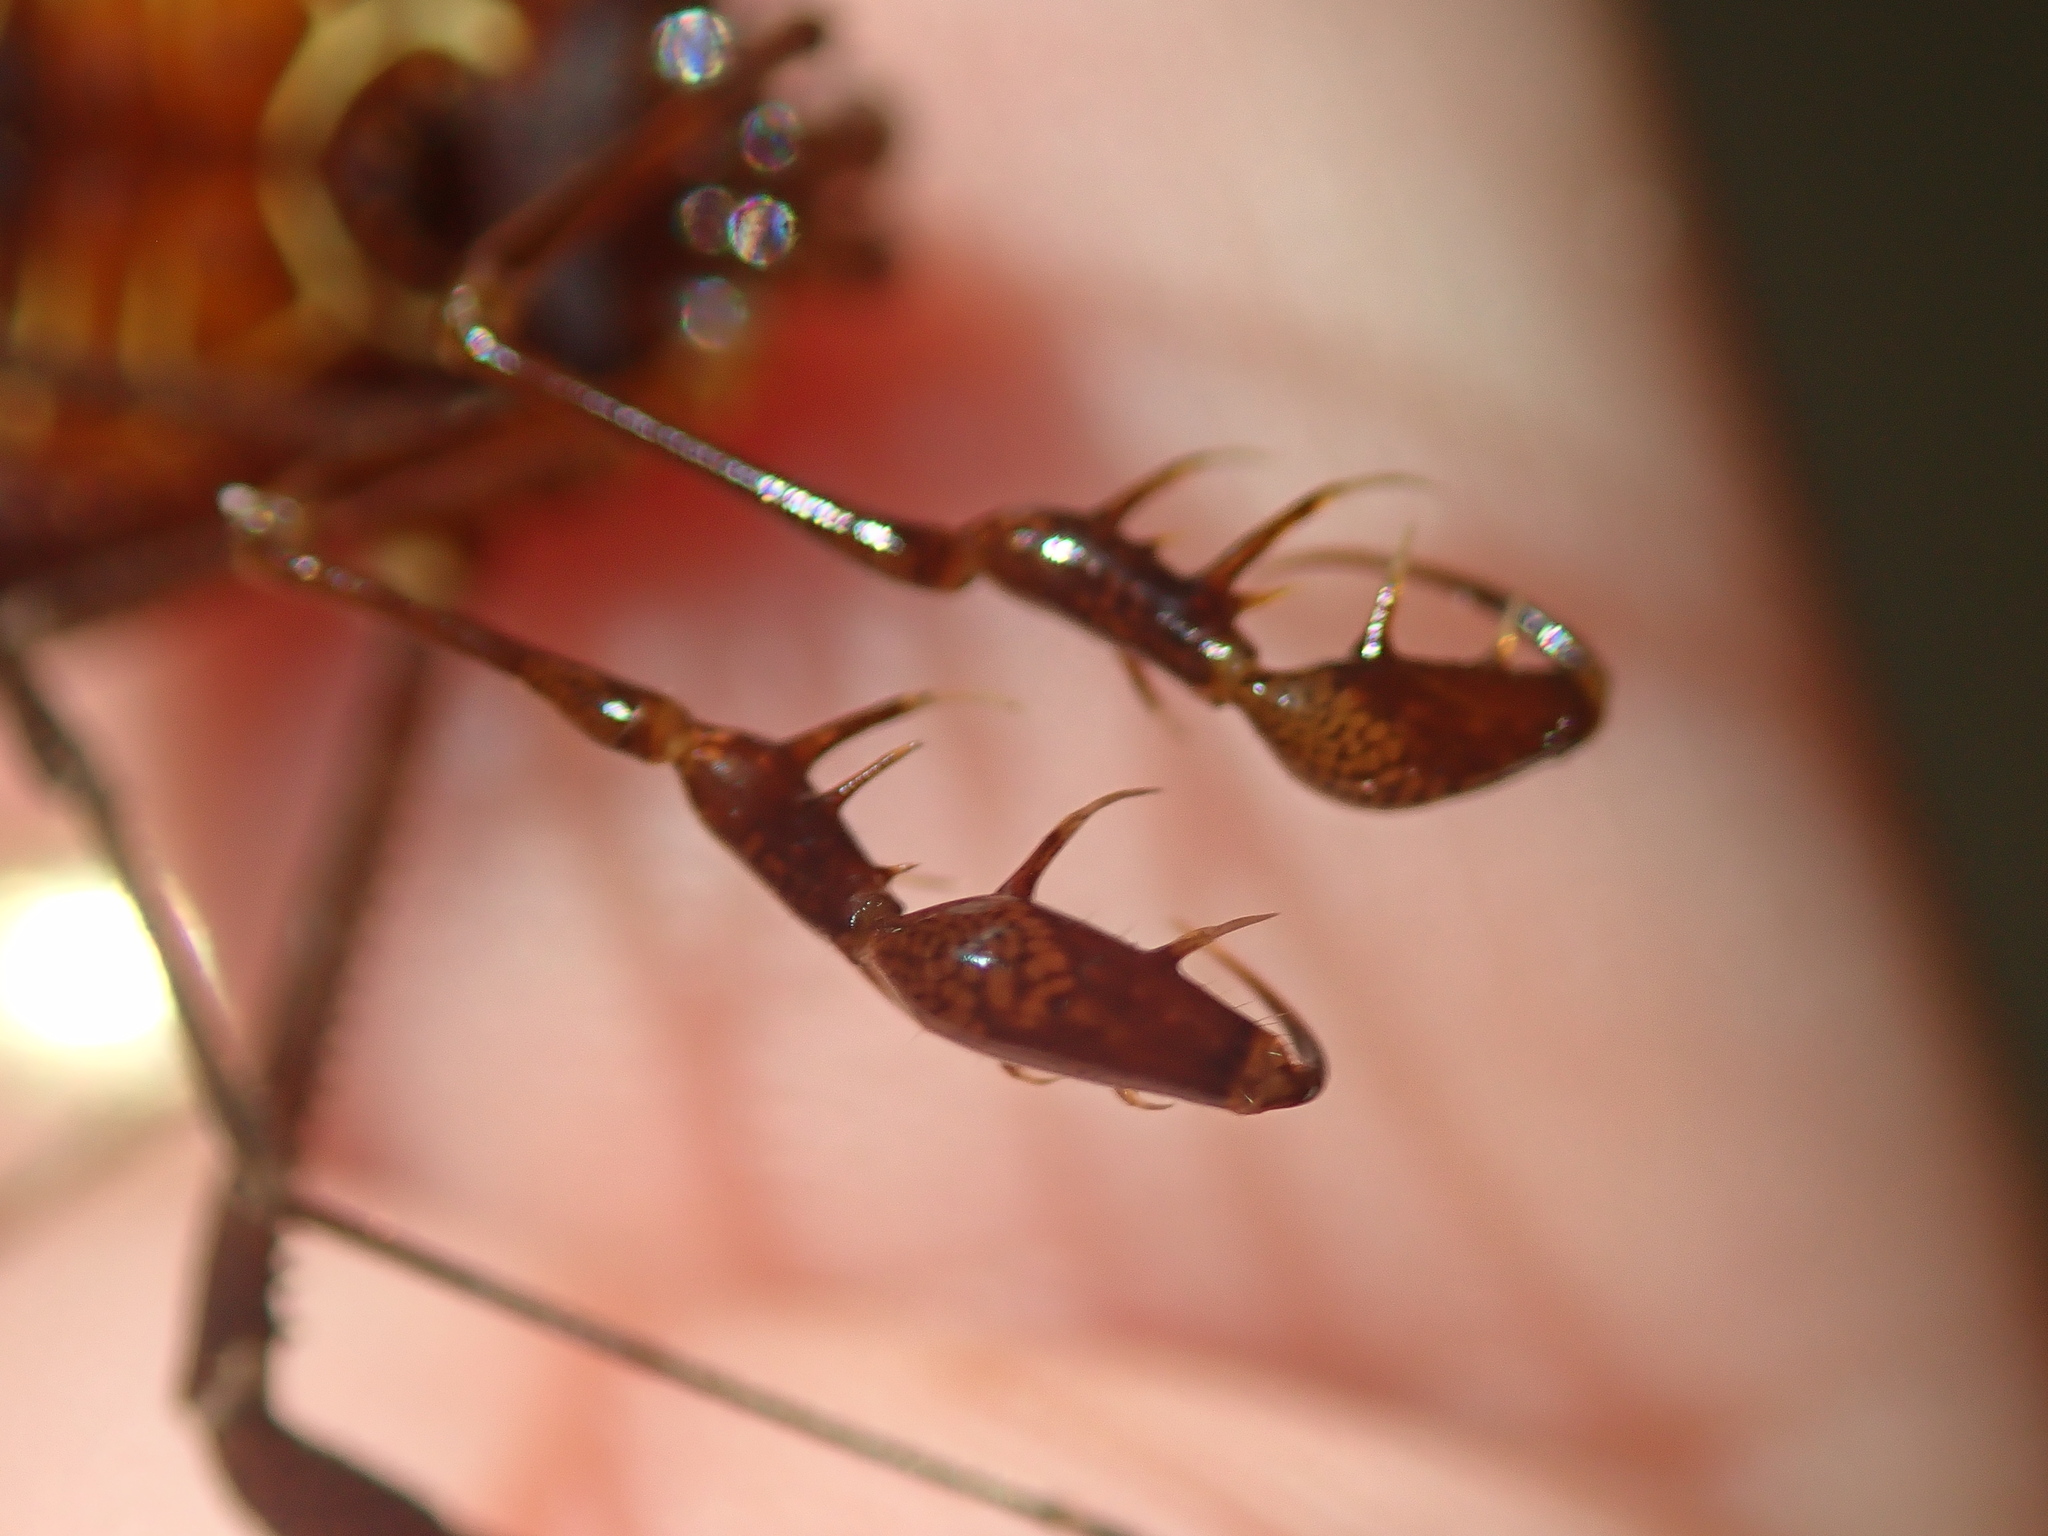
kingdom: Animalia
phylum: Arthropoda
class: Arachnida
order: Opiliones
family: Gonyleptidae
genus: Sodreana
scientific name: Sodreana leprevosti
